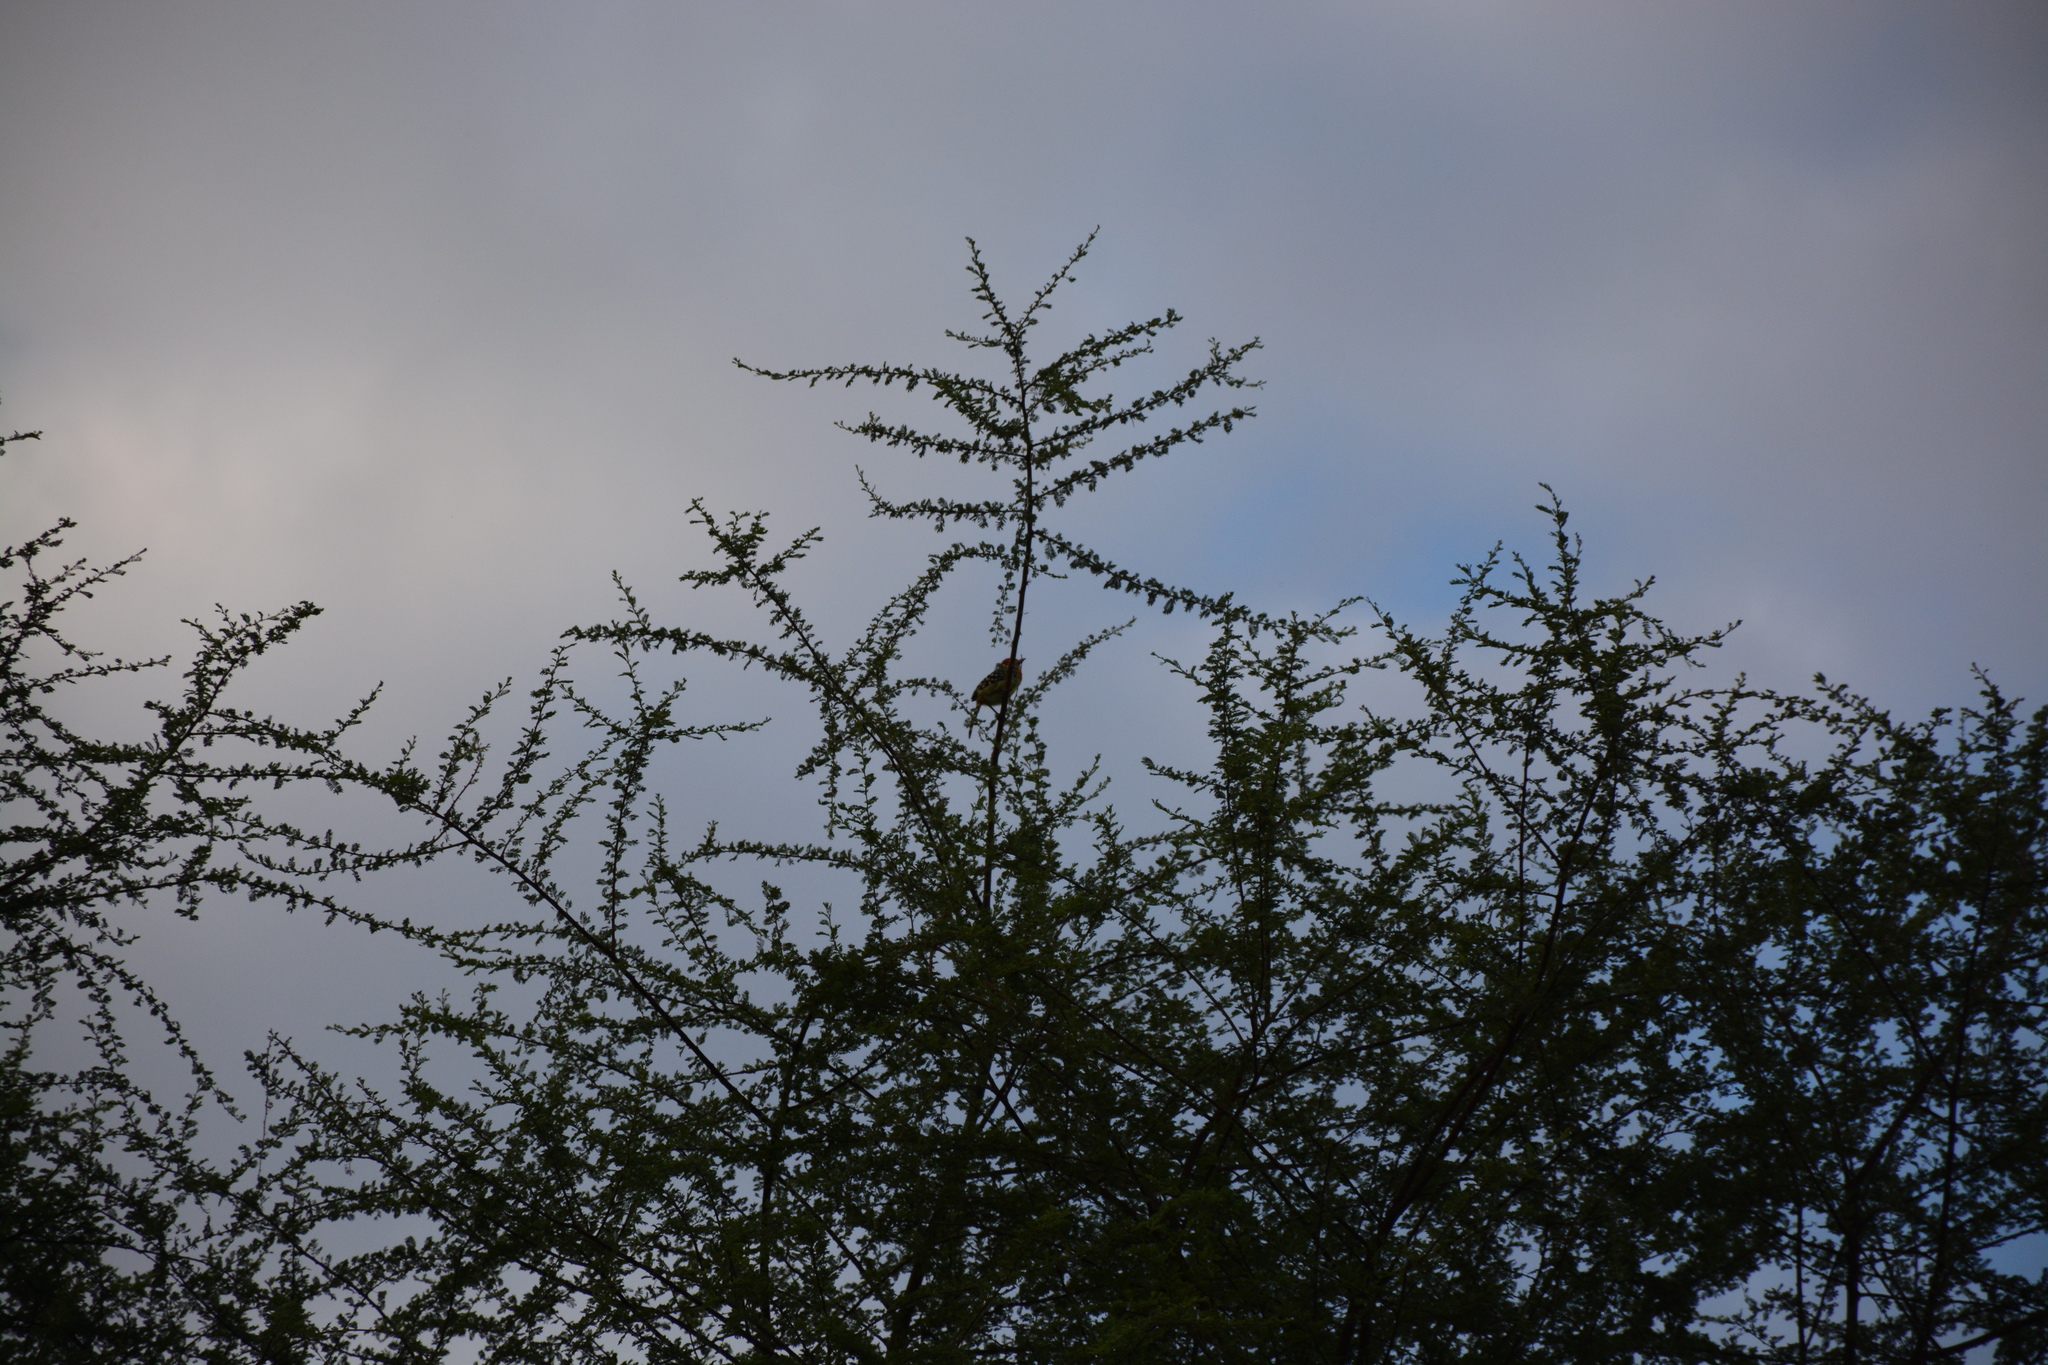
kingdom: Animalia
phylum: Chordata
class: Aves
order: Piciformes
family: Lybiidae
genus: Trachyphonus
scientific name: Trachyphonus erythrocephalus
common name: Red-and-yellow barbet
